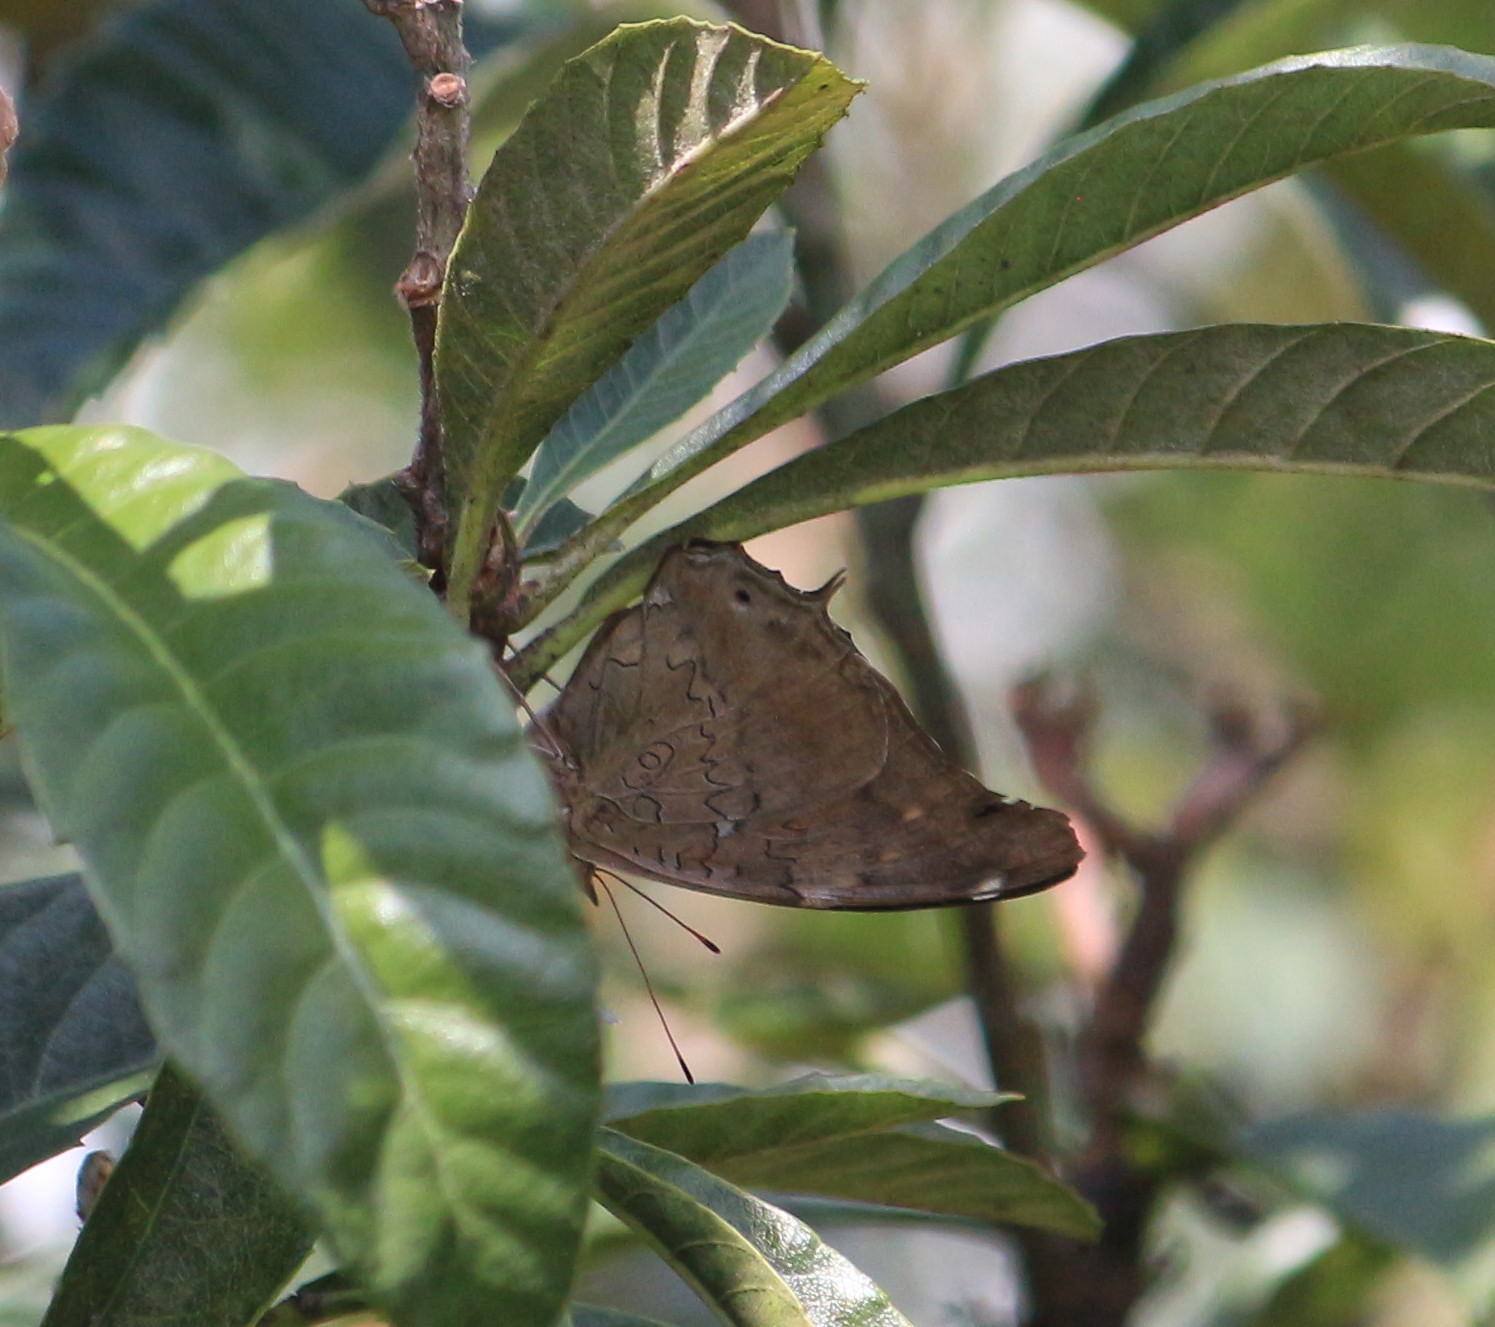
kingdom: Animalia
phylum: Arthropoda
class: Insecta
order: Lepidoptera
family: Nymphalidae
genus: Coea
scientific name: Coea acheronta
